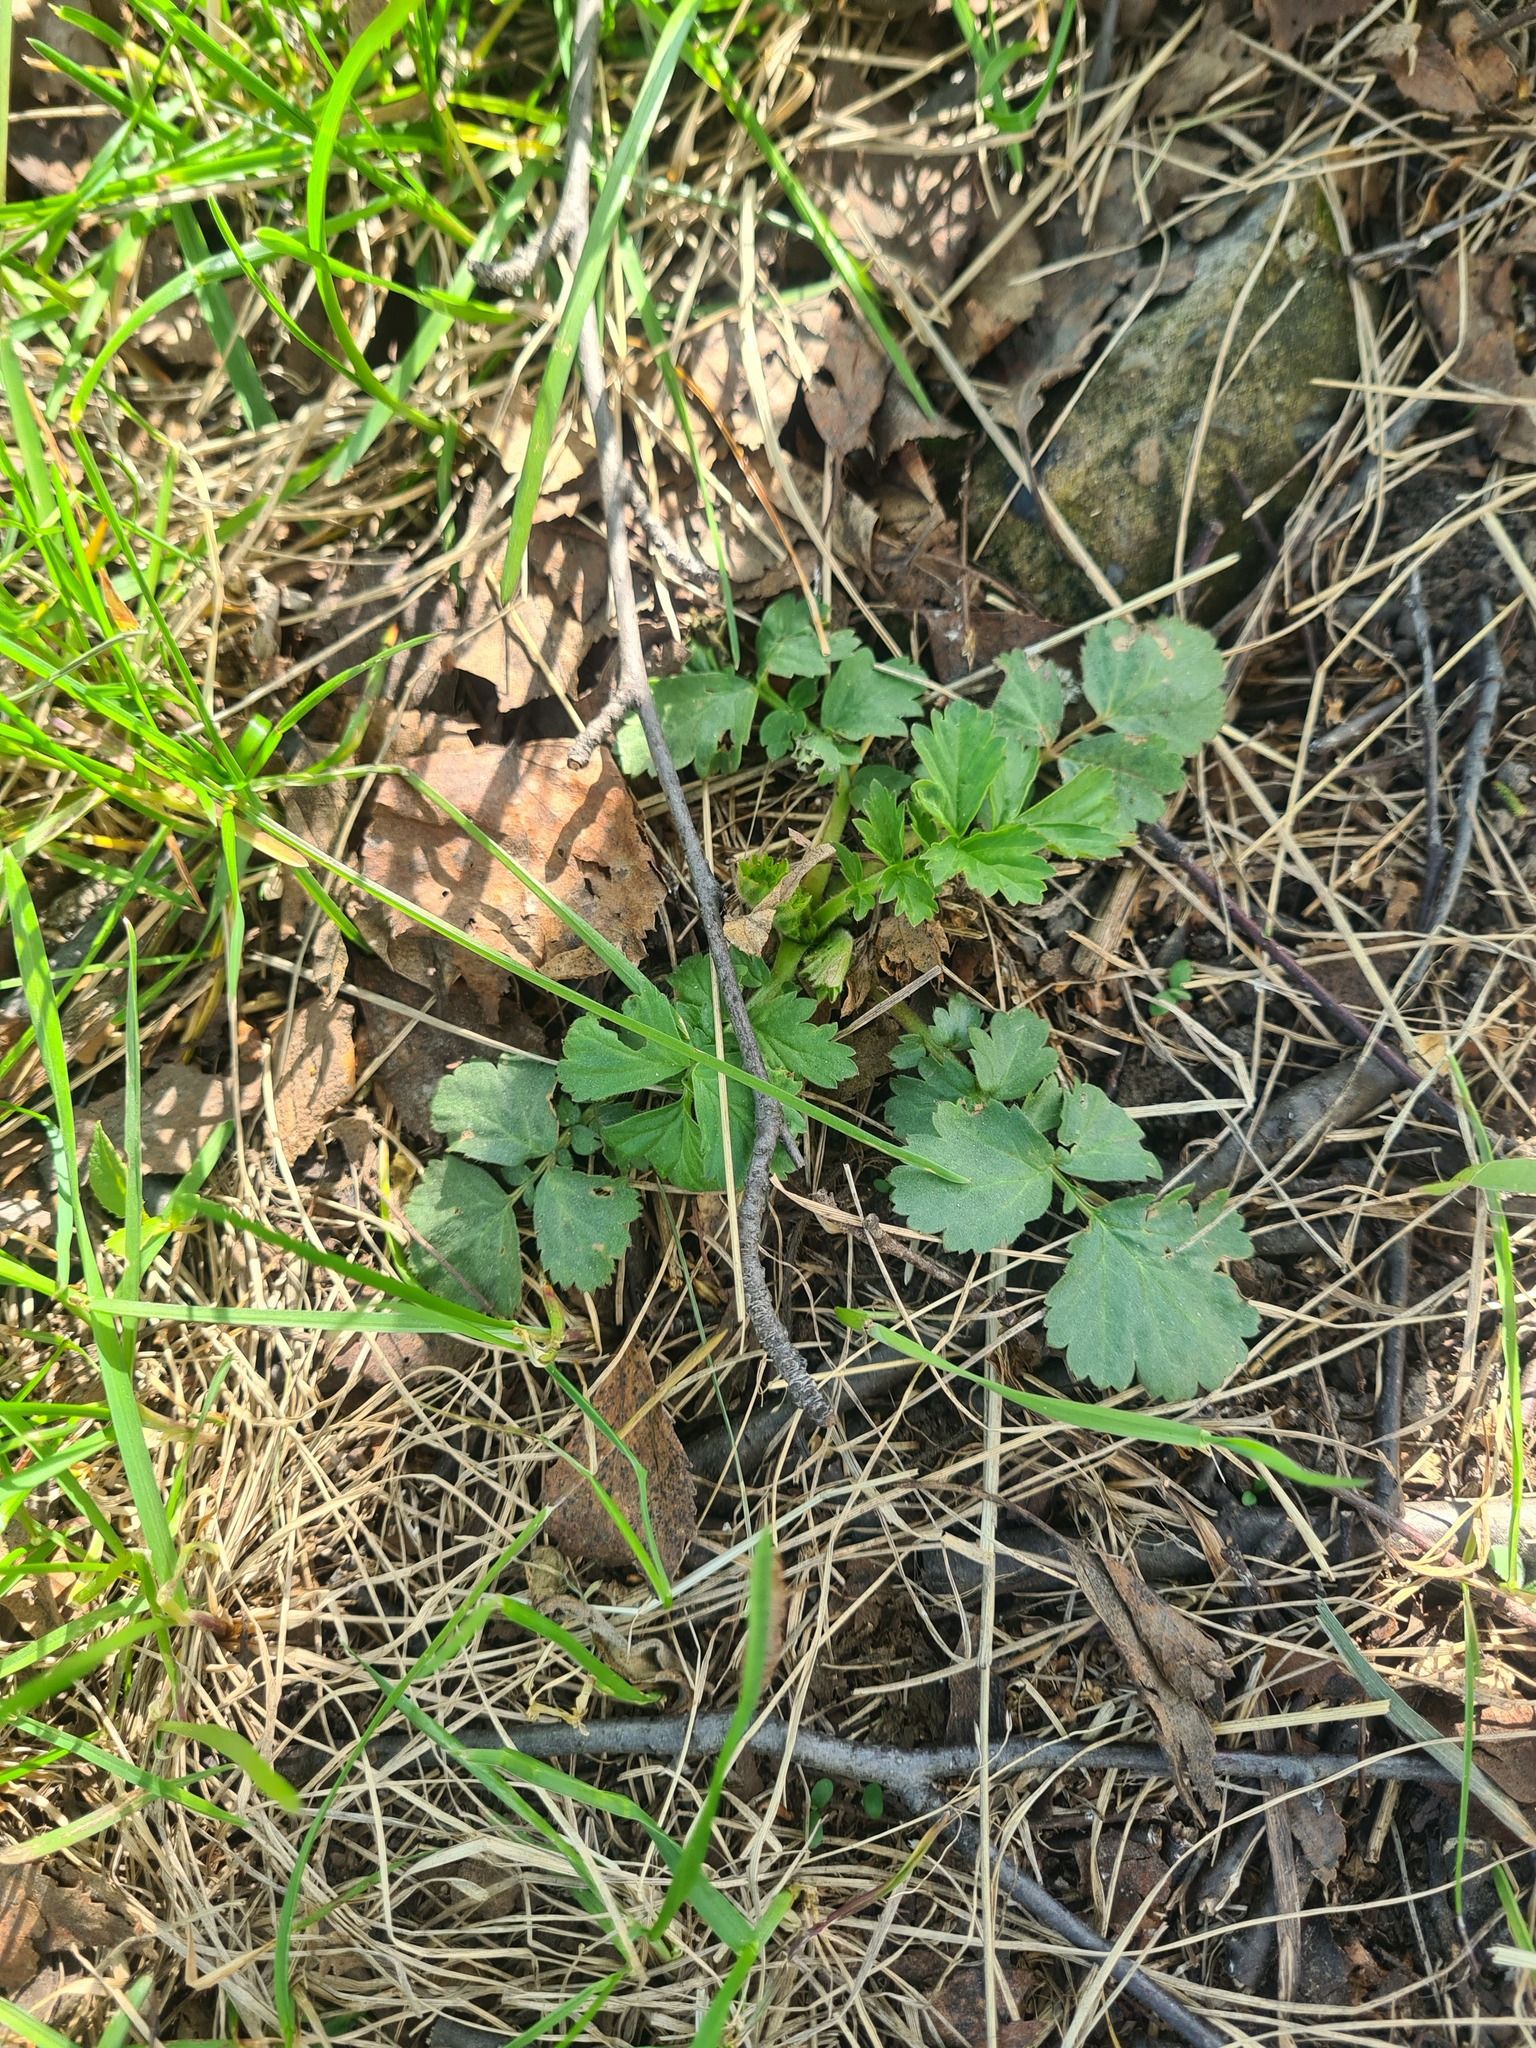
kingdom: Plantae
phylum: Tracheophyta
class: Magnoliopsida
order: Rosales
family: Rosaceae
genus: Geum
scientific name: Geum aleppicum
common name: Yellow avens
